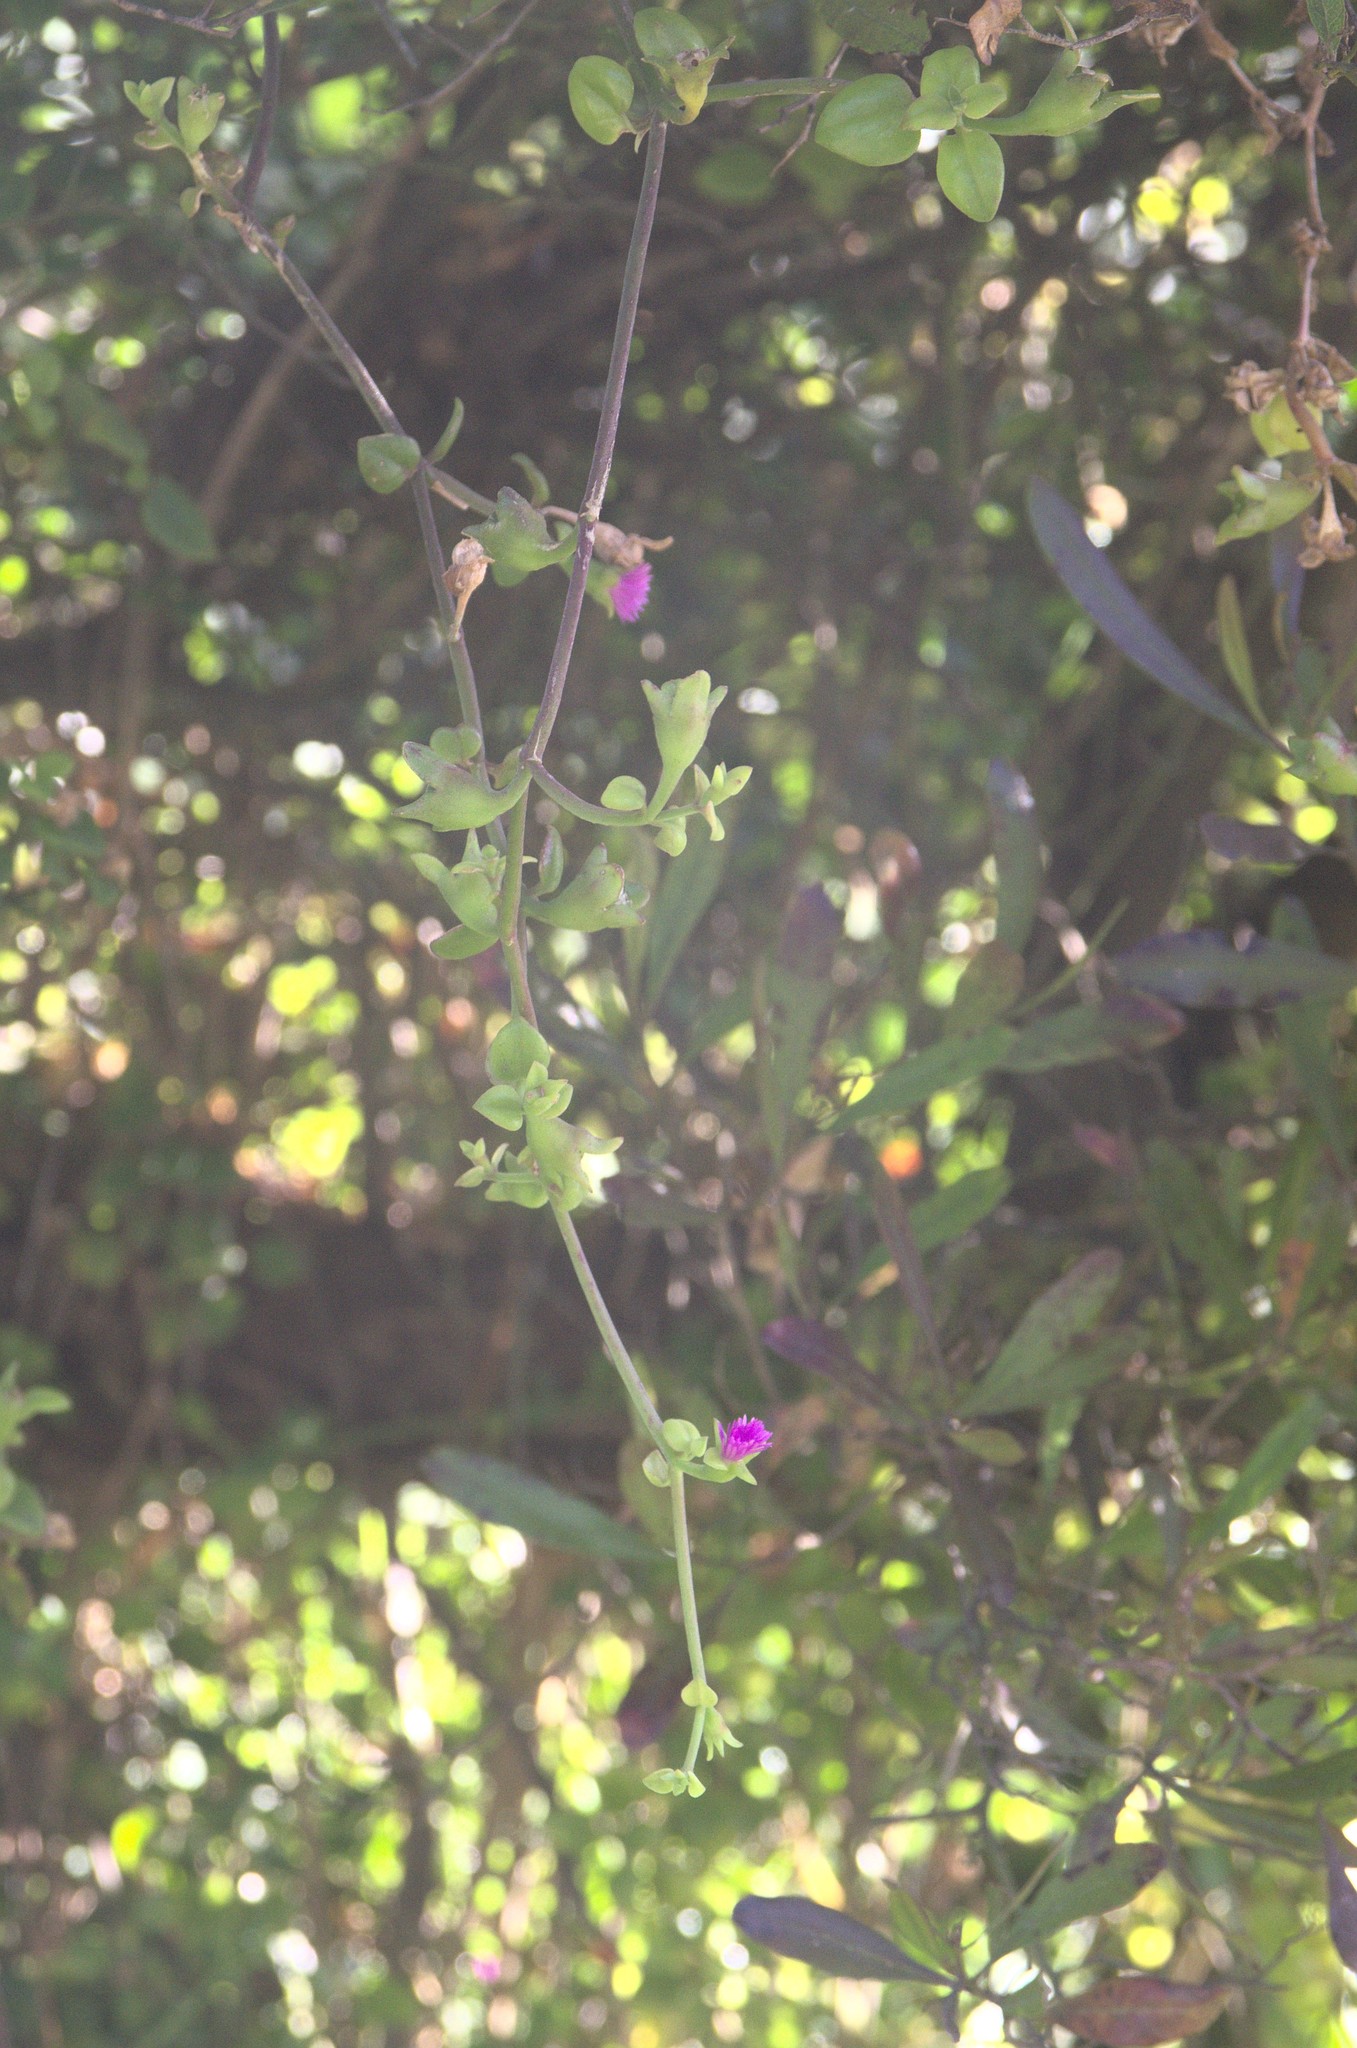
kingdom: Plantae
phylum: Tracheophyta
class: Magnoliopsida
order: Caryophyllales
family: Aizoaceae
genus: Mesembryanthemum
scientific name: Mesembryanthemum cordifolium
